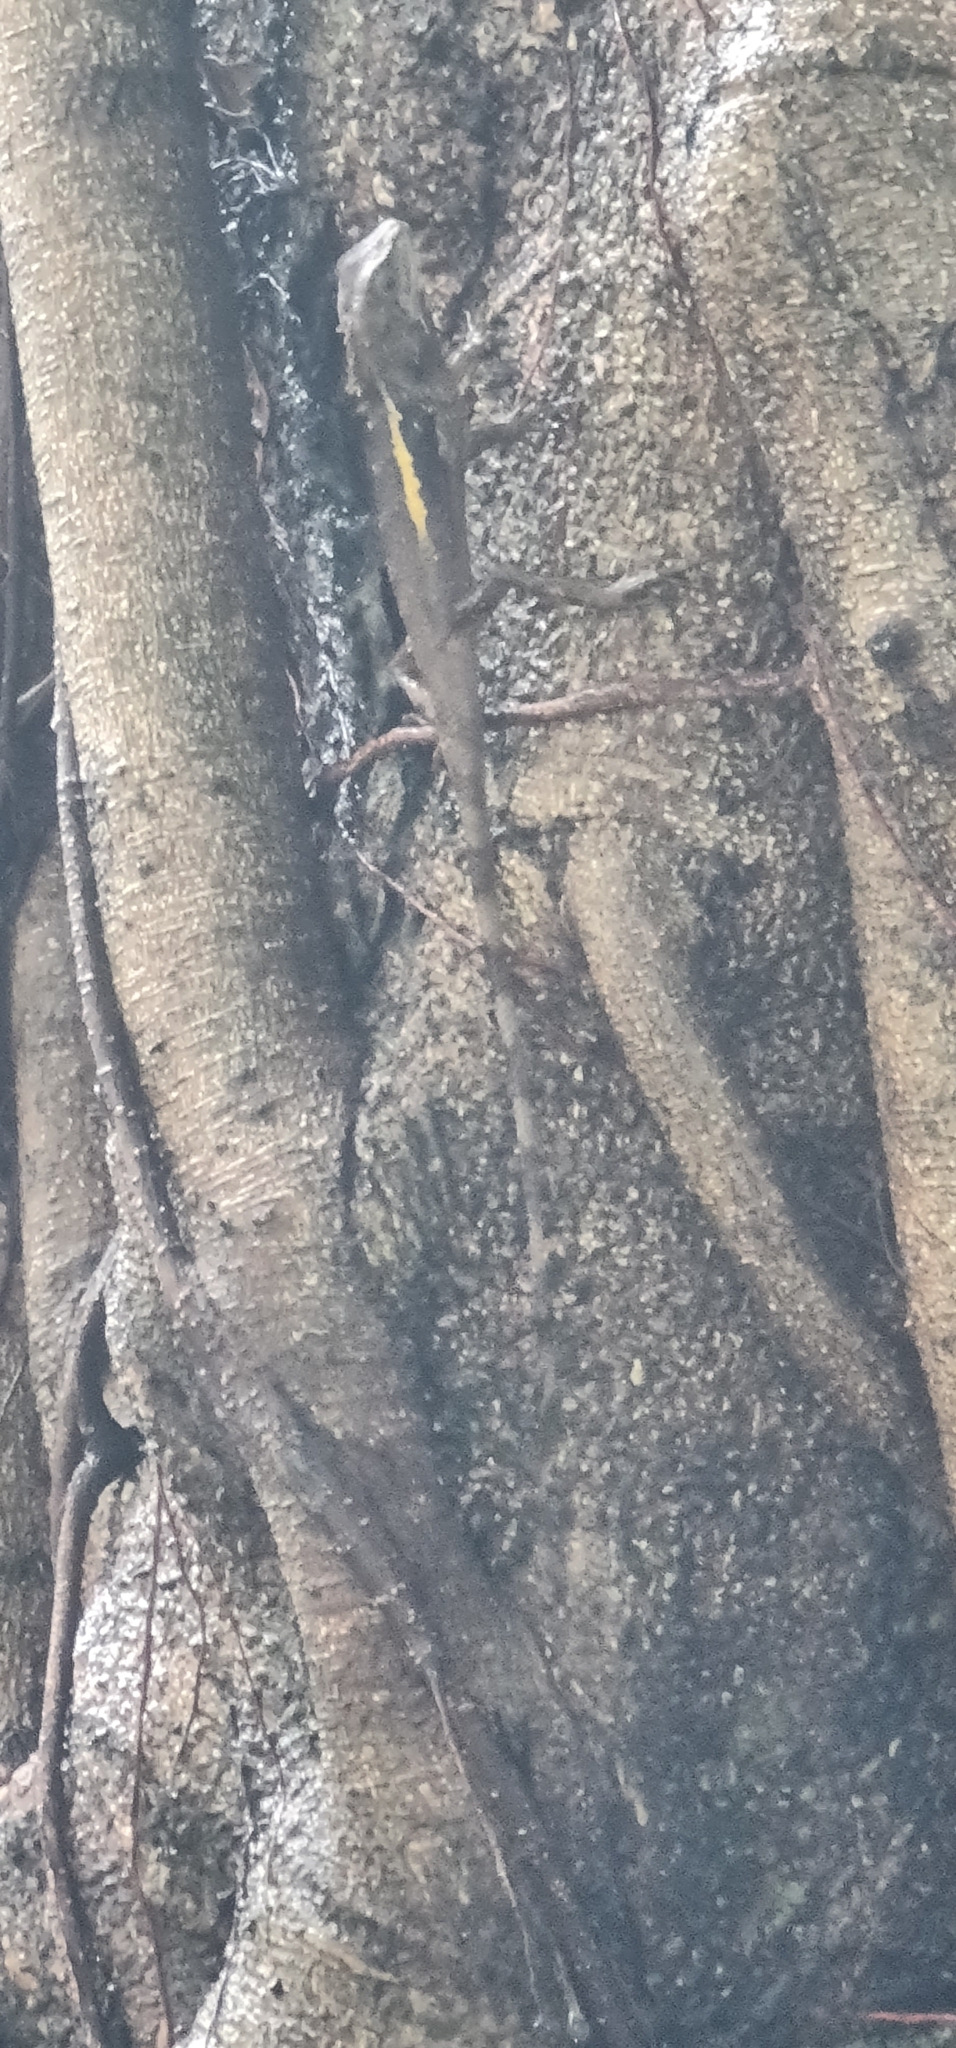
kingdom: Animalia
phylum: Chordata
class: Squamata
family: Agamidae
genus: Diploderma
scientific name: Diploderma swinhonis
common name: Taiwan japalure
